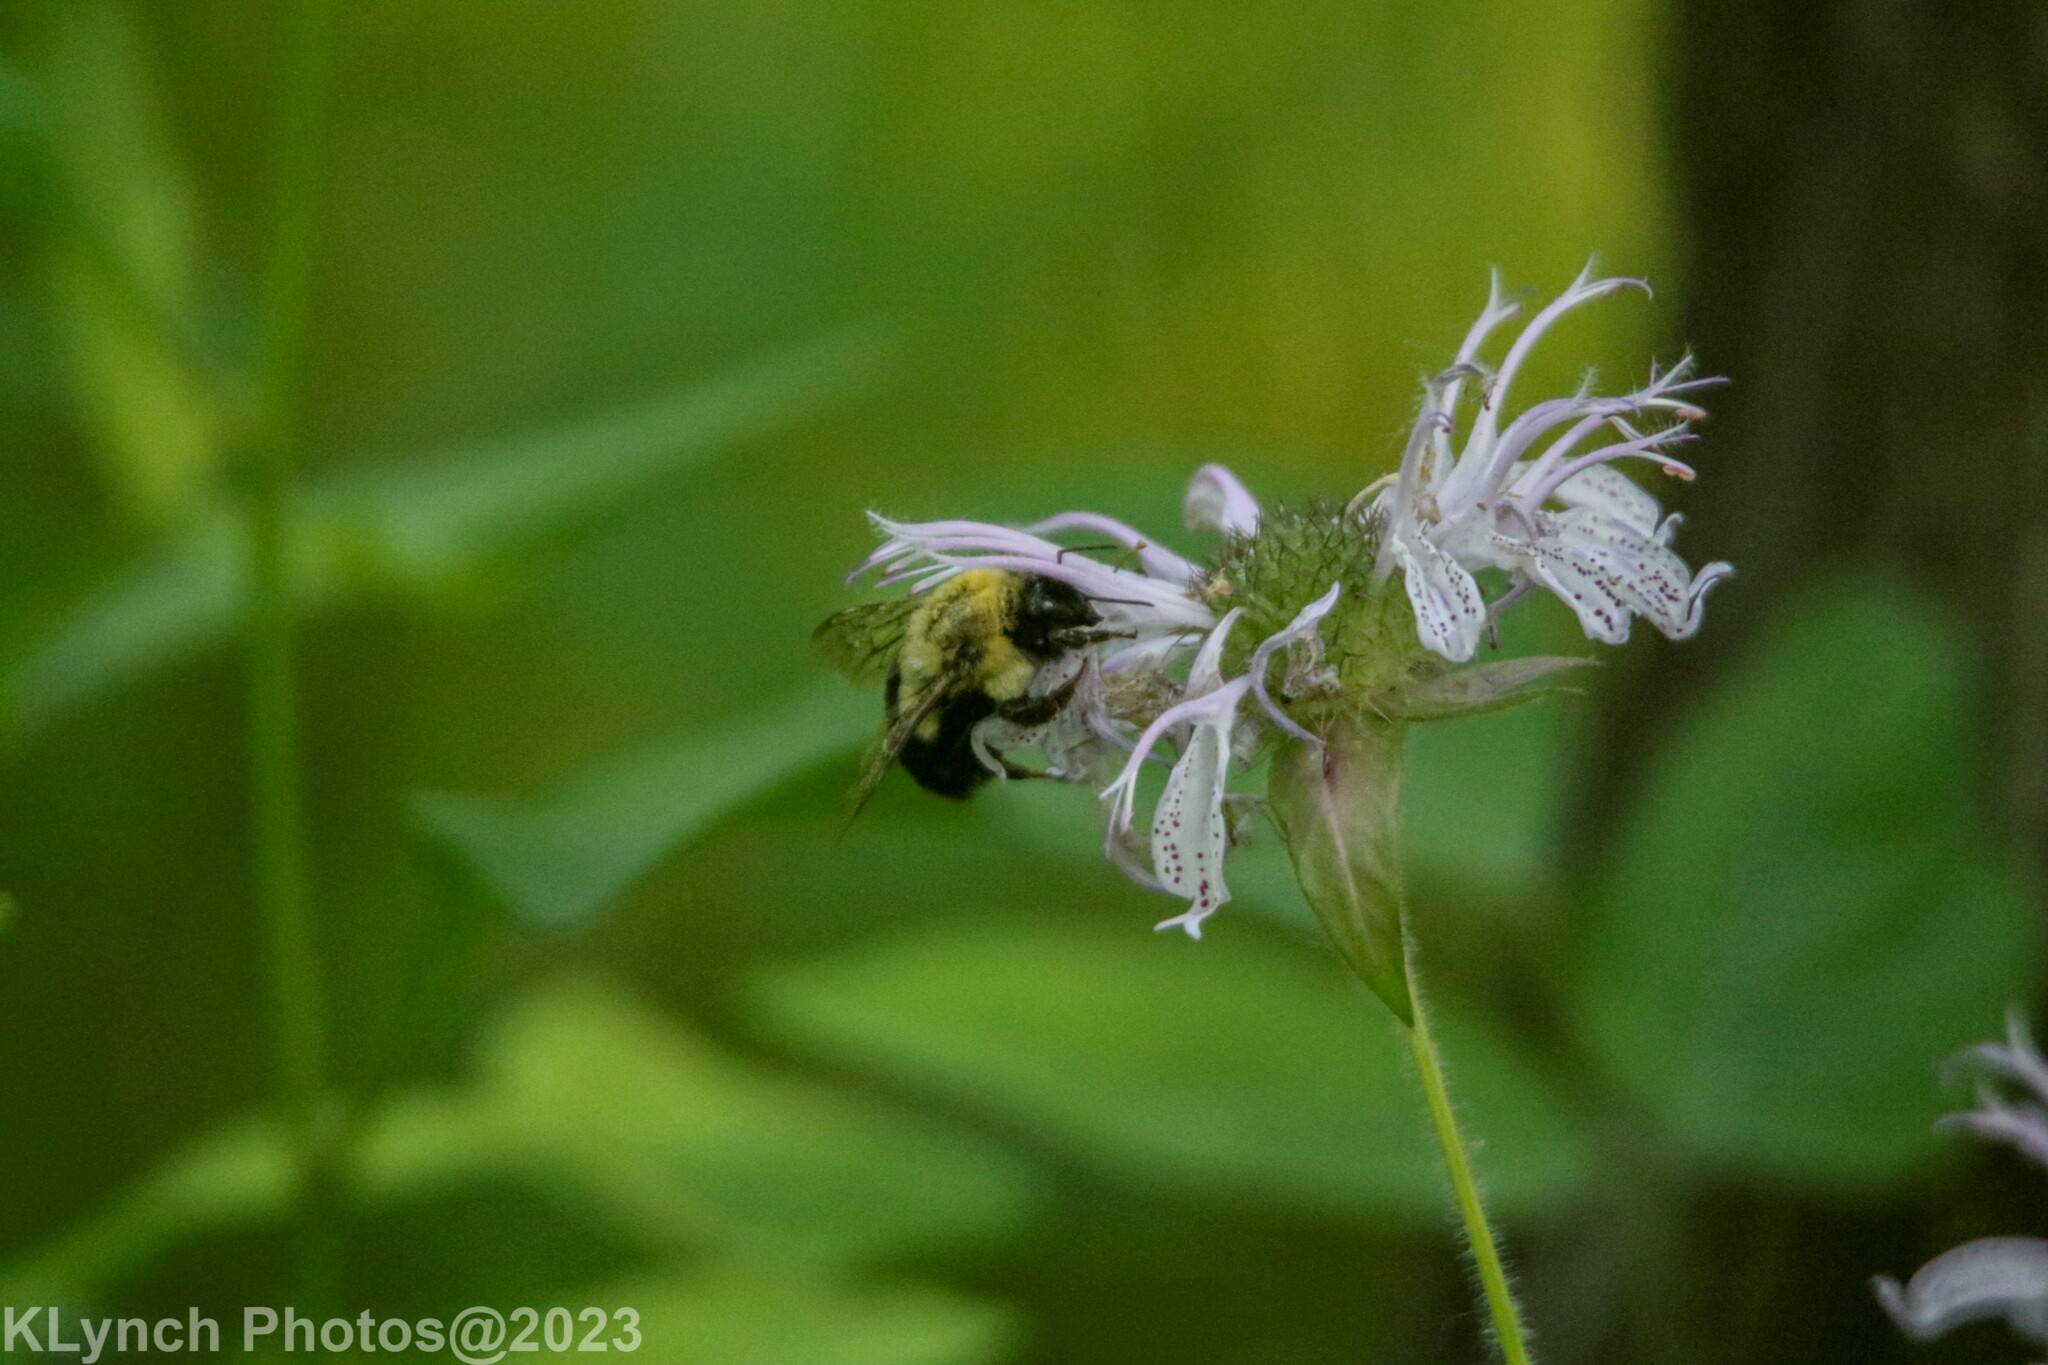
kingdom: Animalia
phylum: Arthropoda
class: Insecta
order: Hymenoptera
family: Apidae
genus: Bombus
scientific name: Bombus impatiens
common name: Common eastern bumble bee
